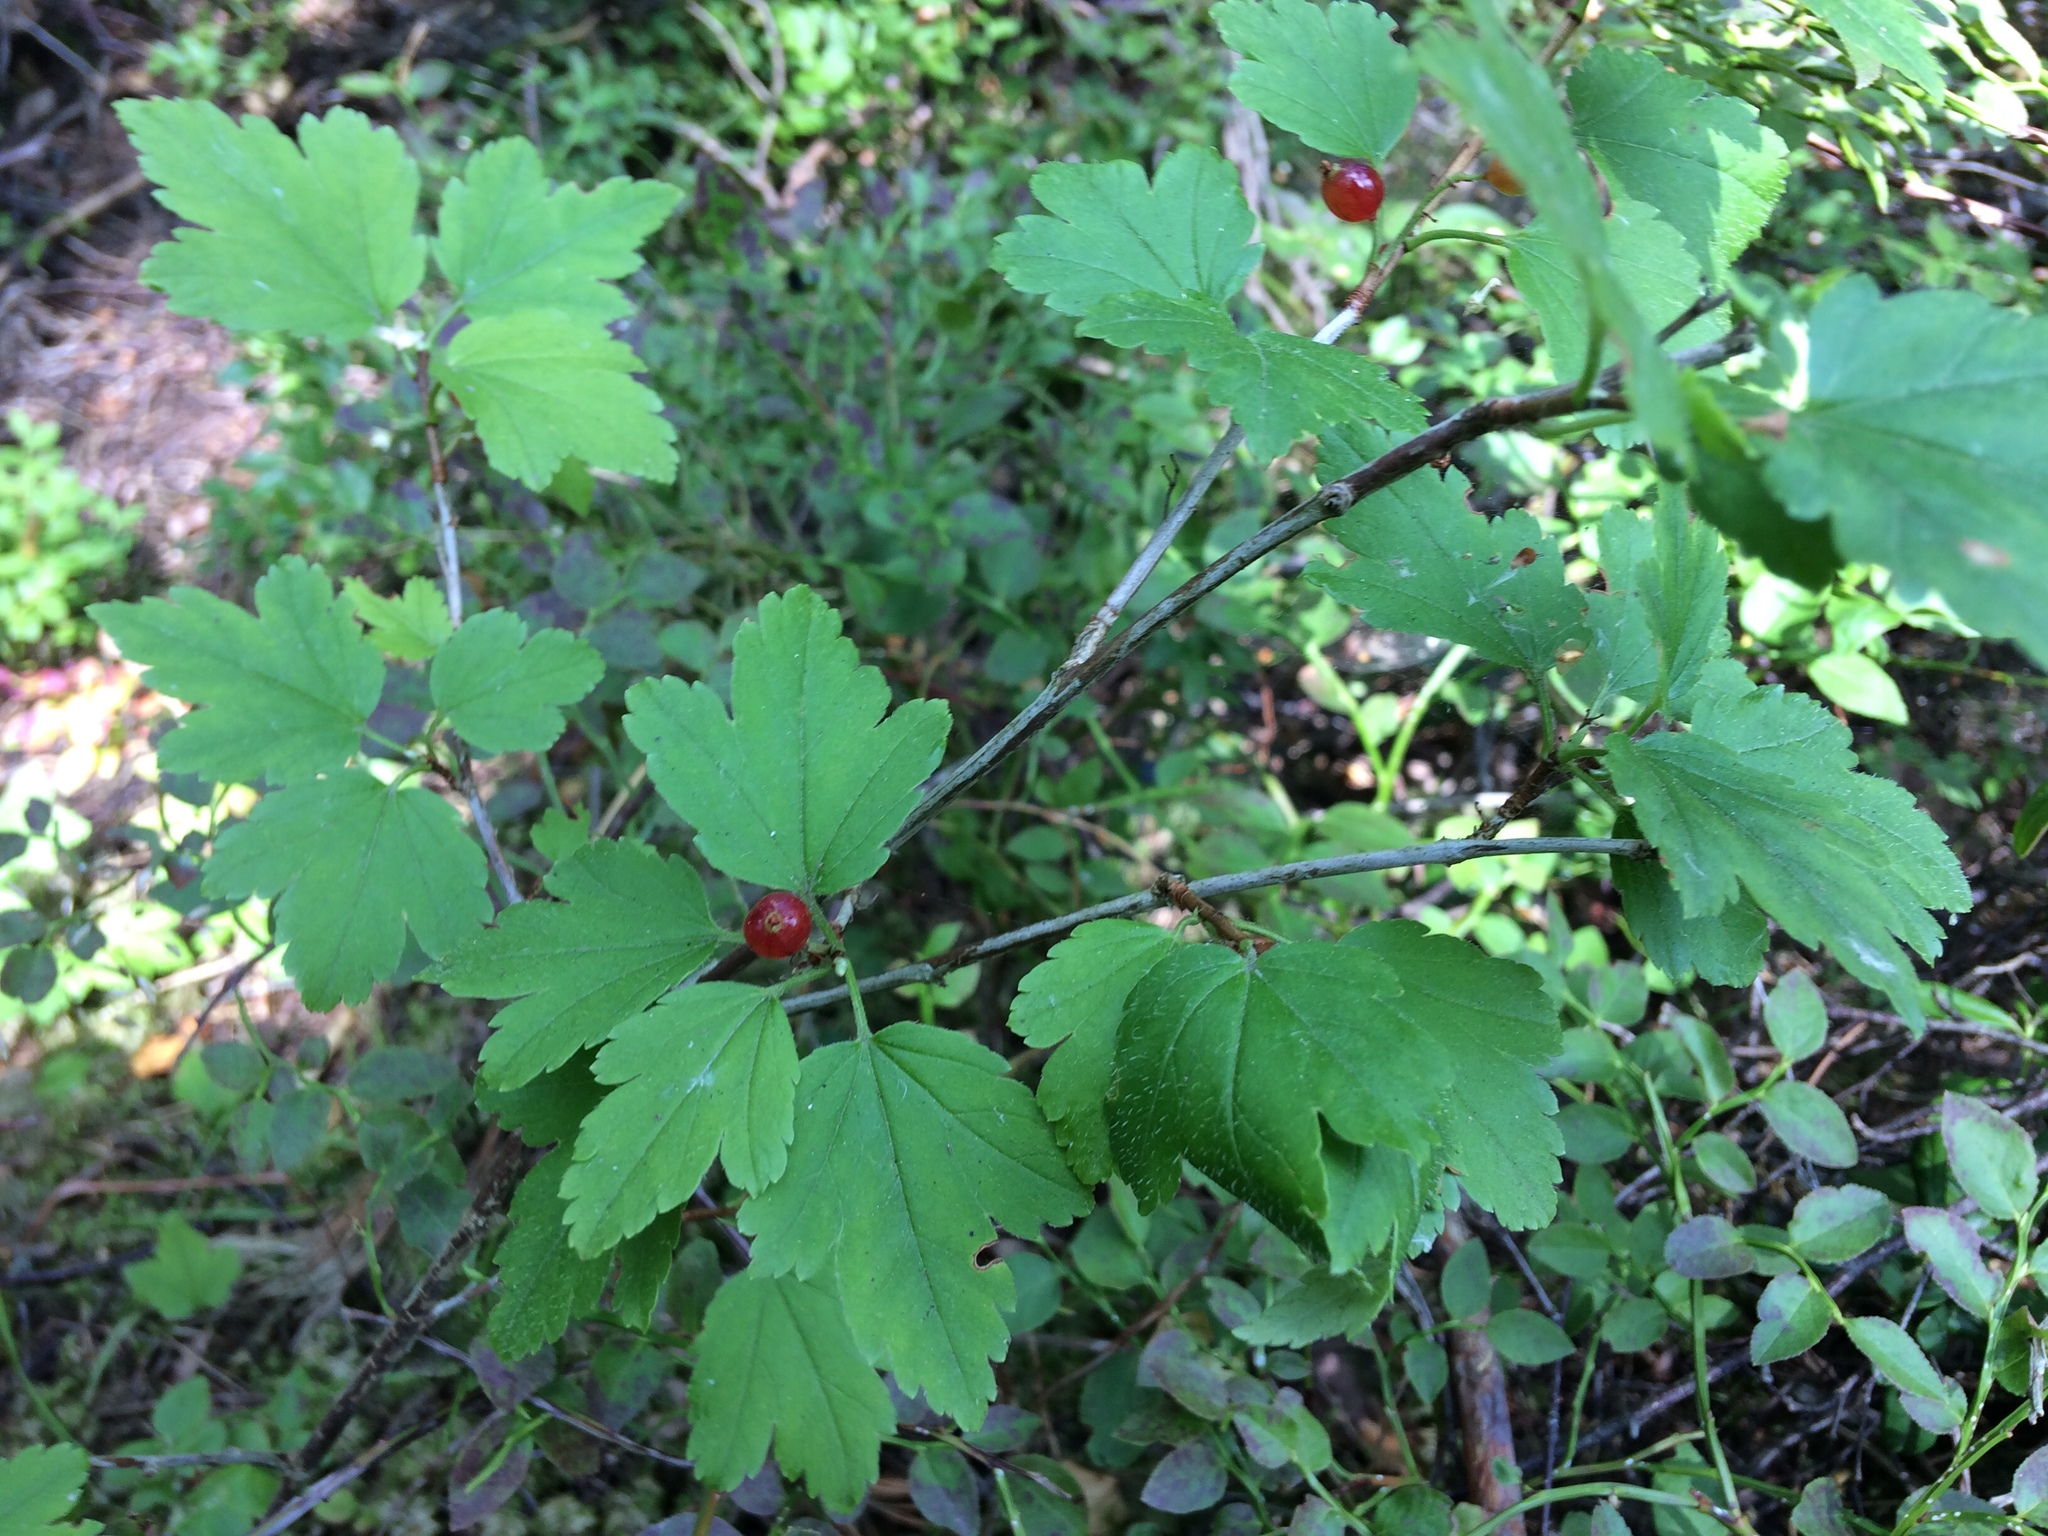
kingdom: Plantae
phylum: Tracheophyta
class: Magnoliopsida
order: Saxifragales
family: Grossulariaceae
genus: Ribes
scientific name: Ribes alpinum
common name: Alpine currant
